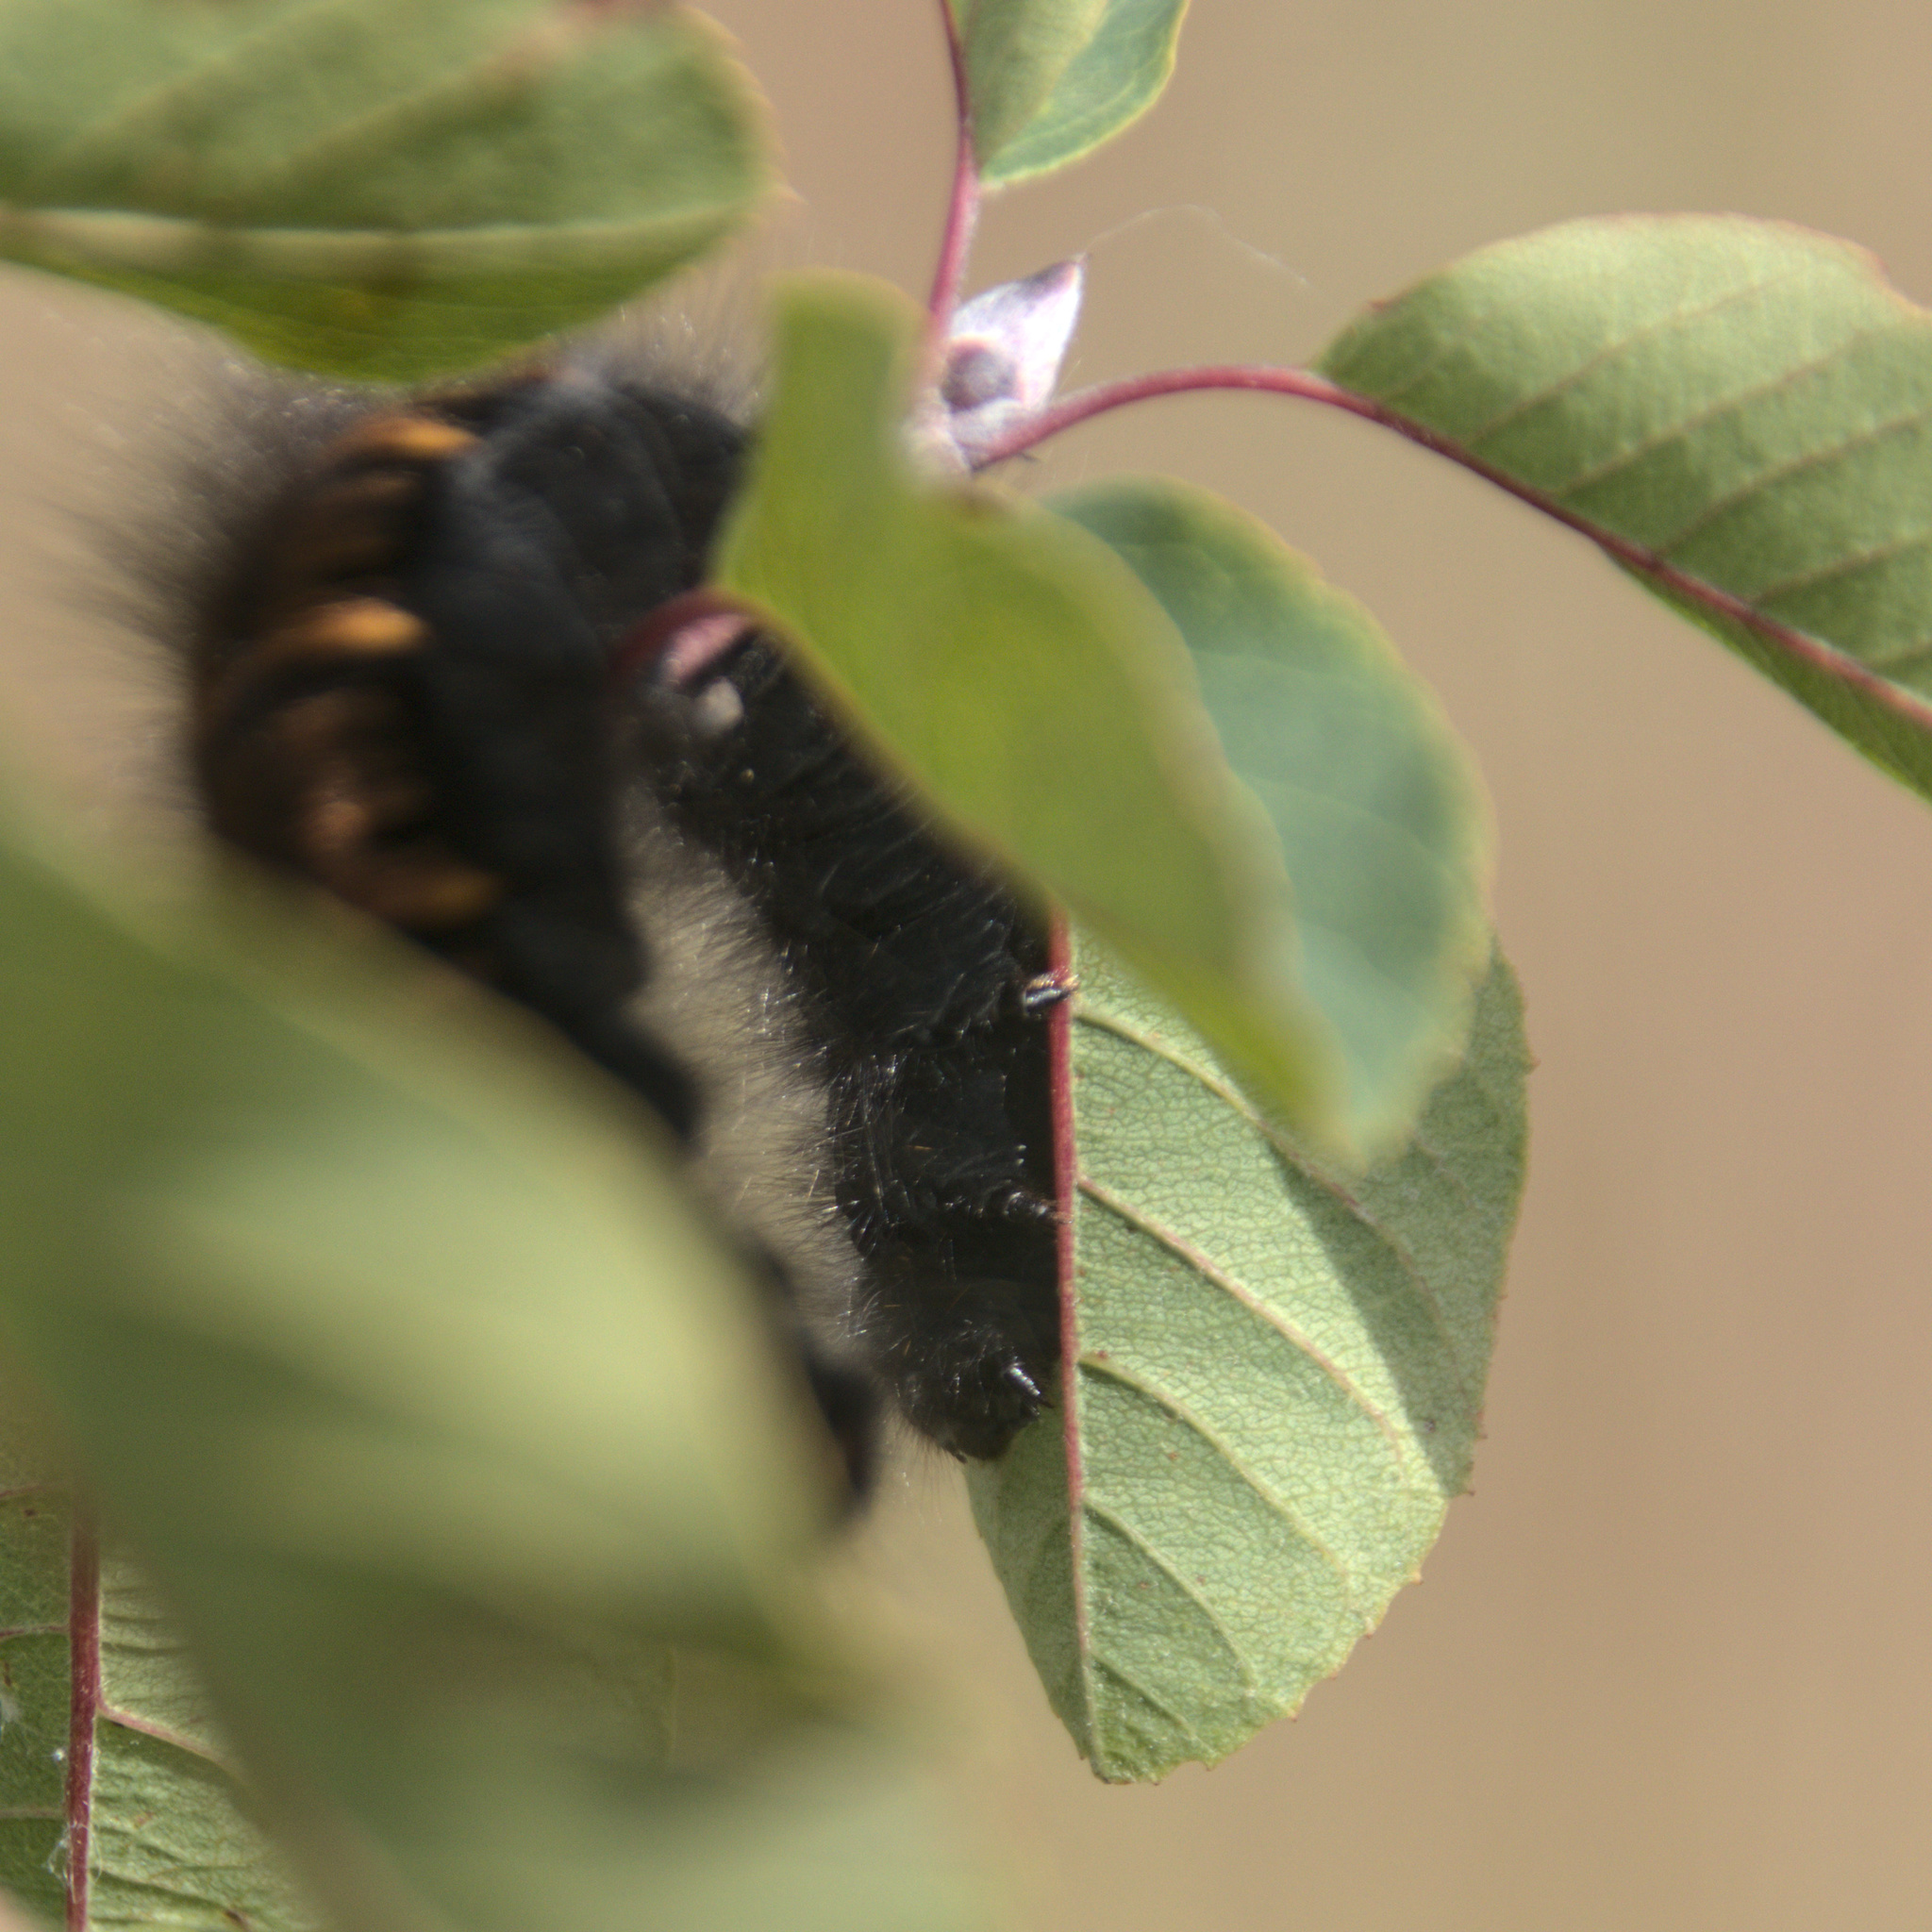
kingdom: Animalia
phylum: Arthropoda
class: Insecta
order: Lepidoptera
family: Lasiocampidae
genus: Macrothylacia
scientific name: Macrothylacia rubi
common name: Fox moth
